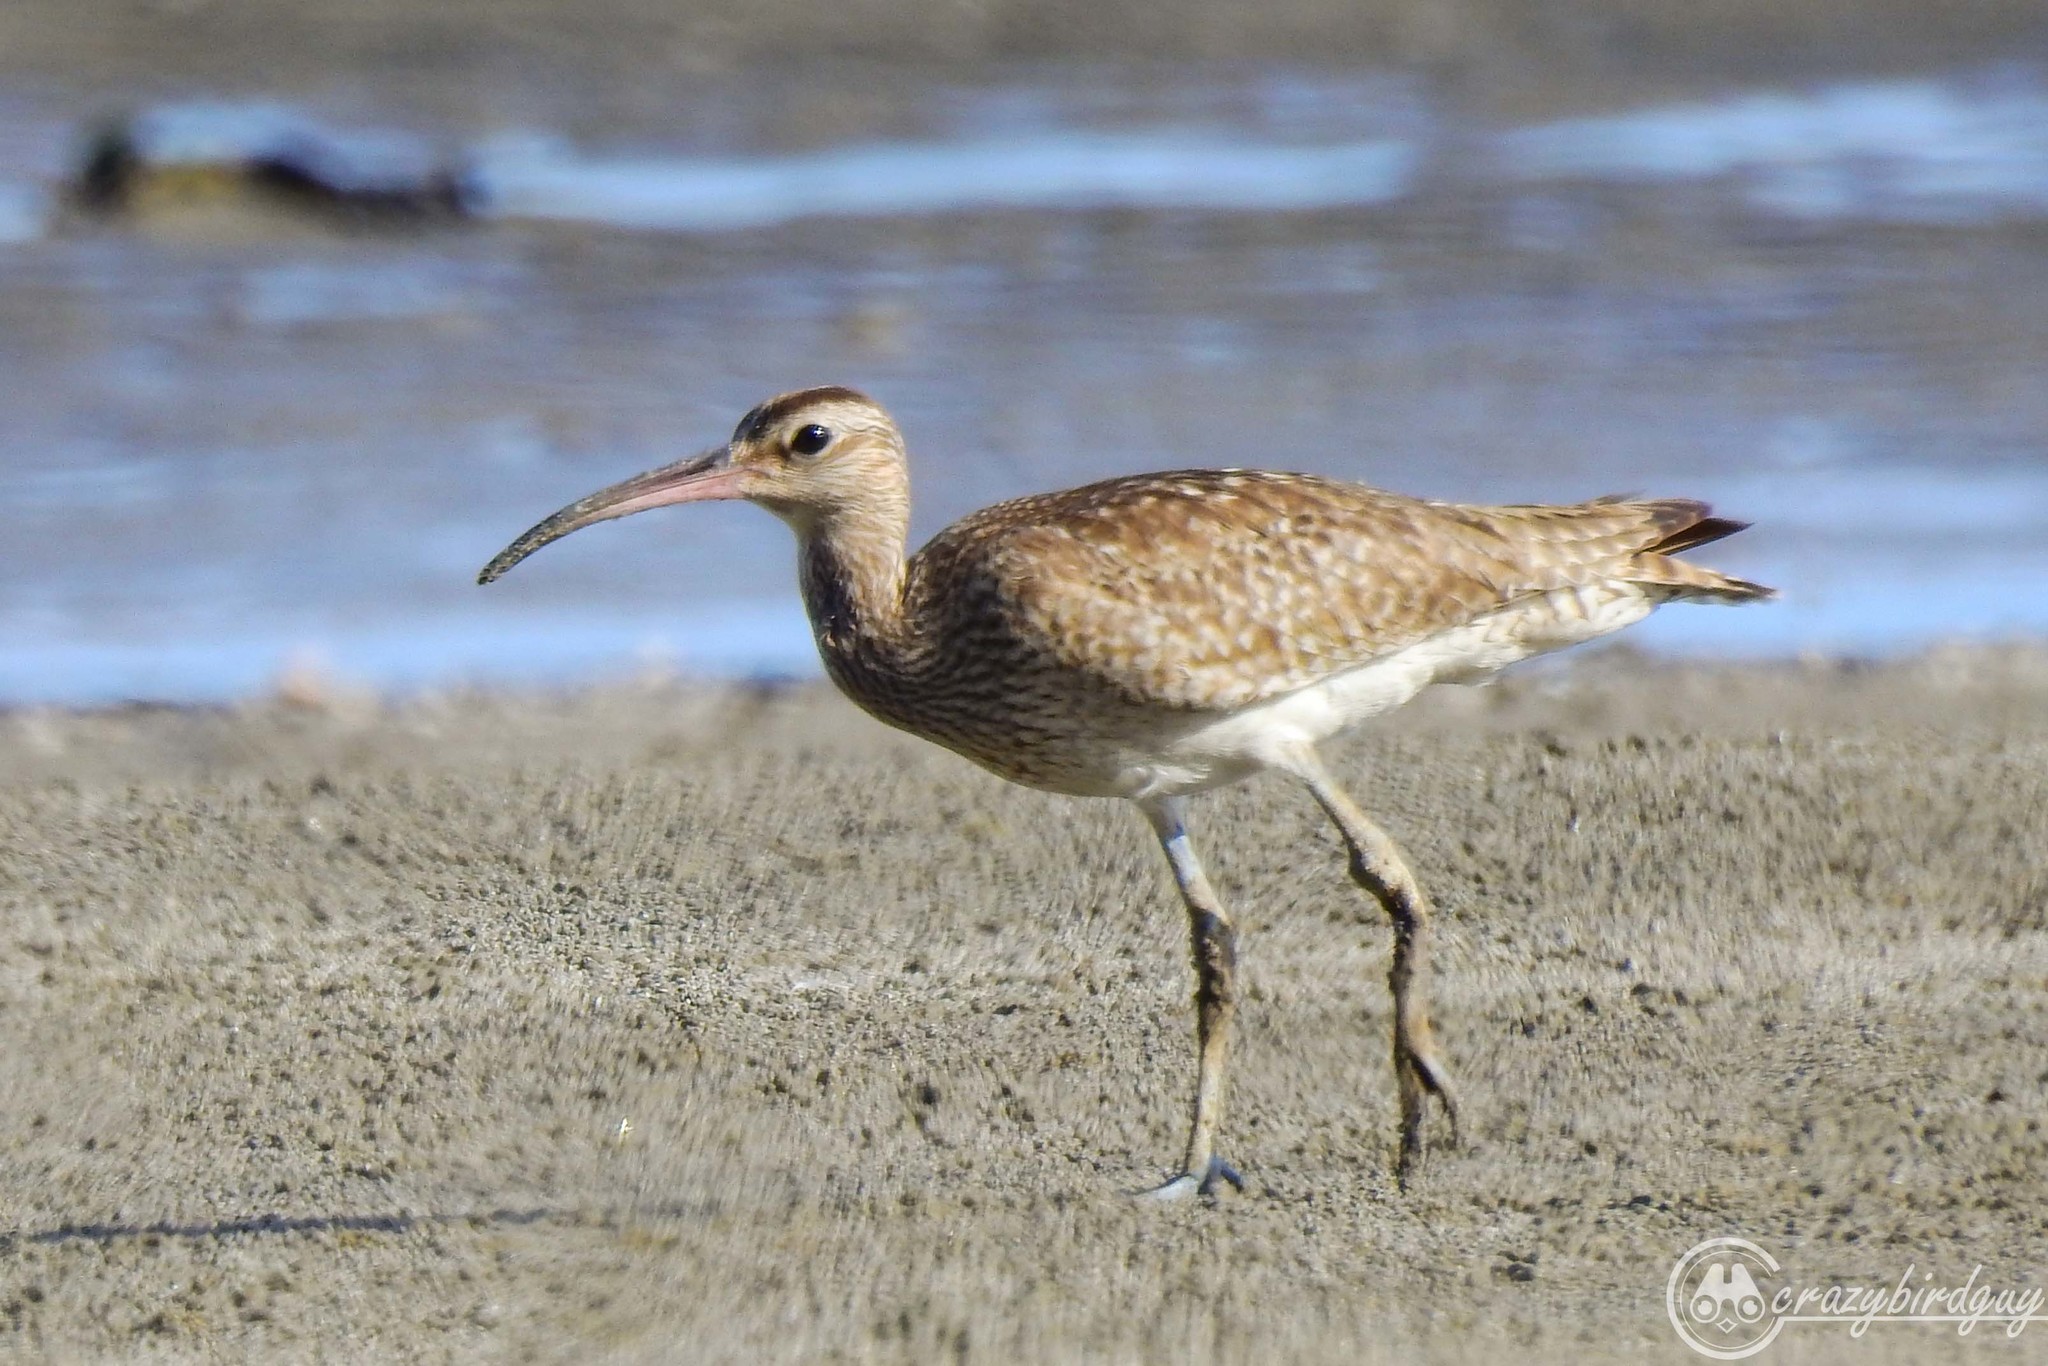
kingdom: Animalia
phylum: Chordata
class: Aves
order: Charadriiformes
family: Scolopacidae
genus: Numenius
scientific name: Numenius phaeopus
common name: Whimbrel
